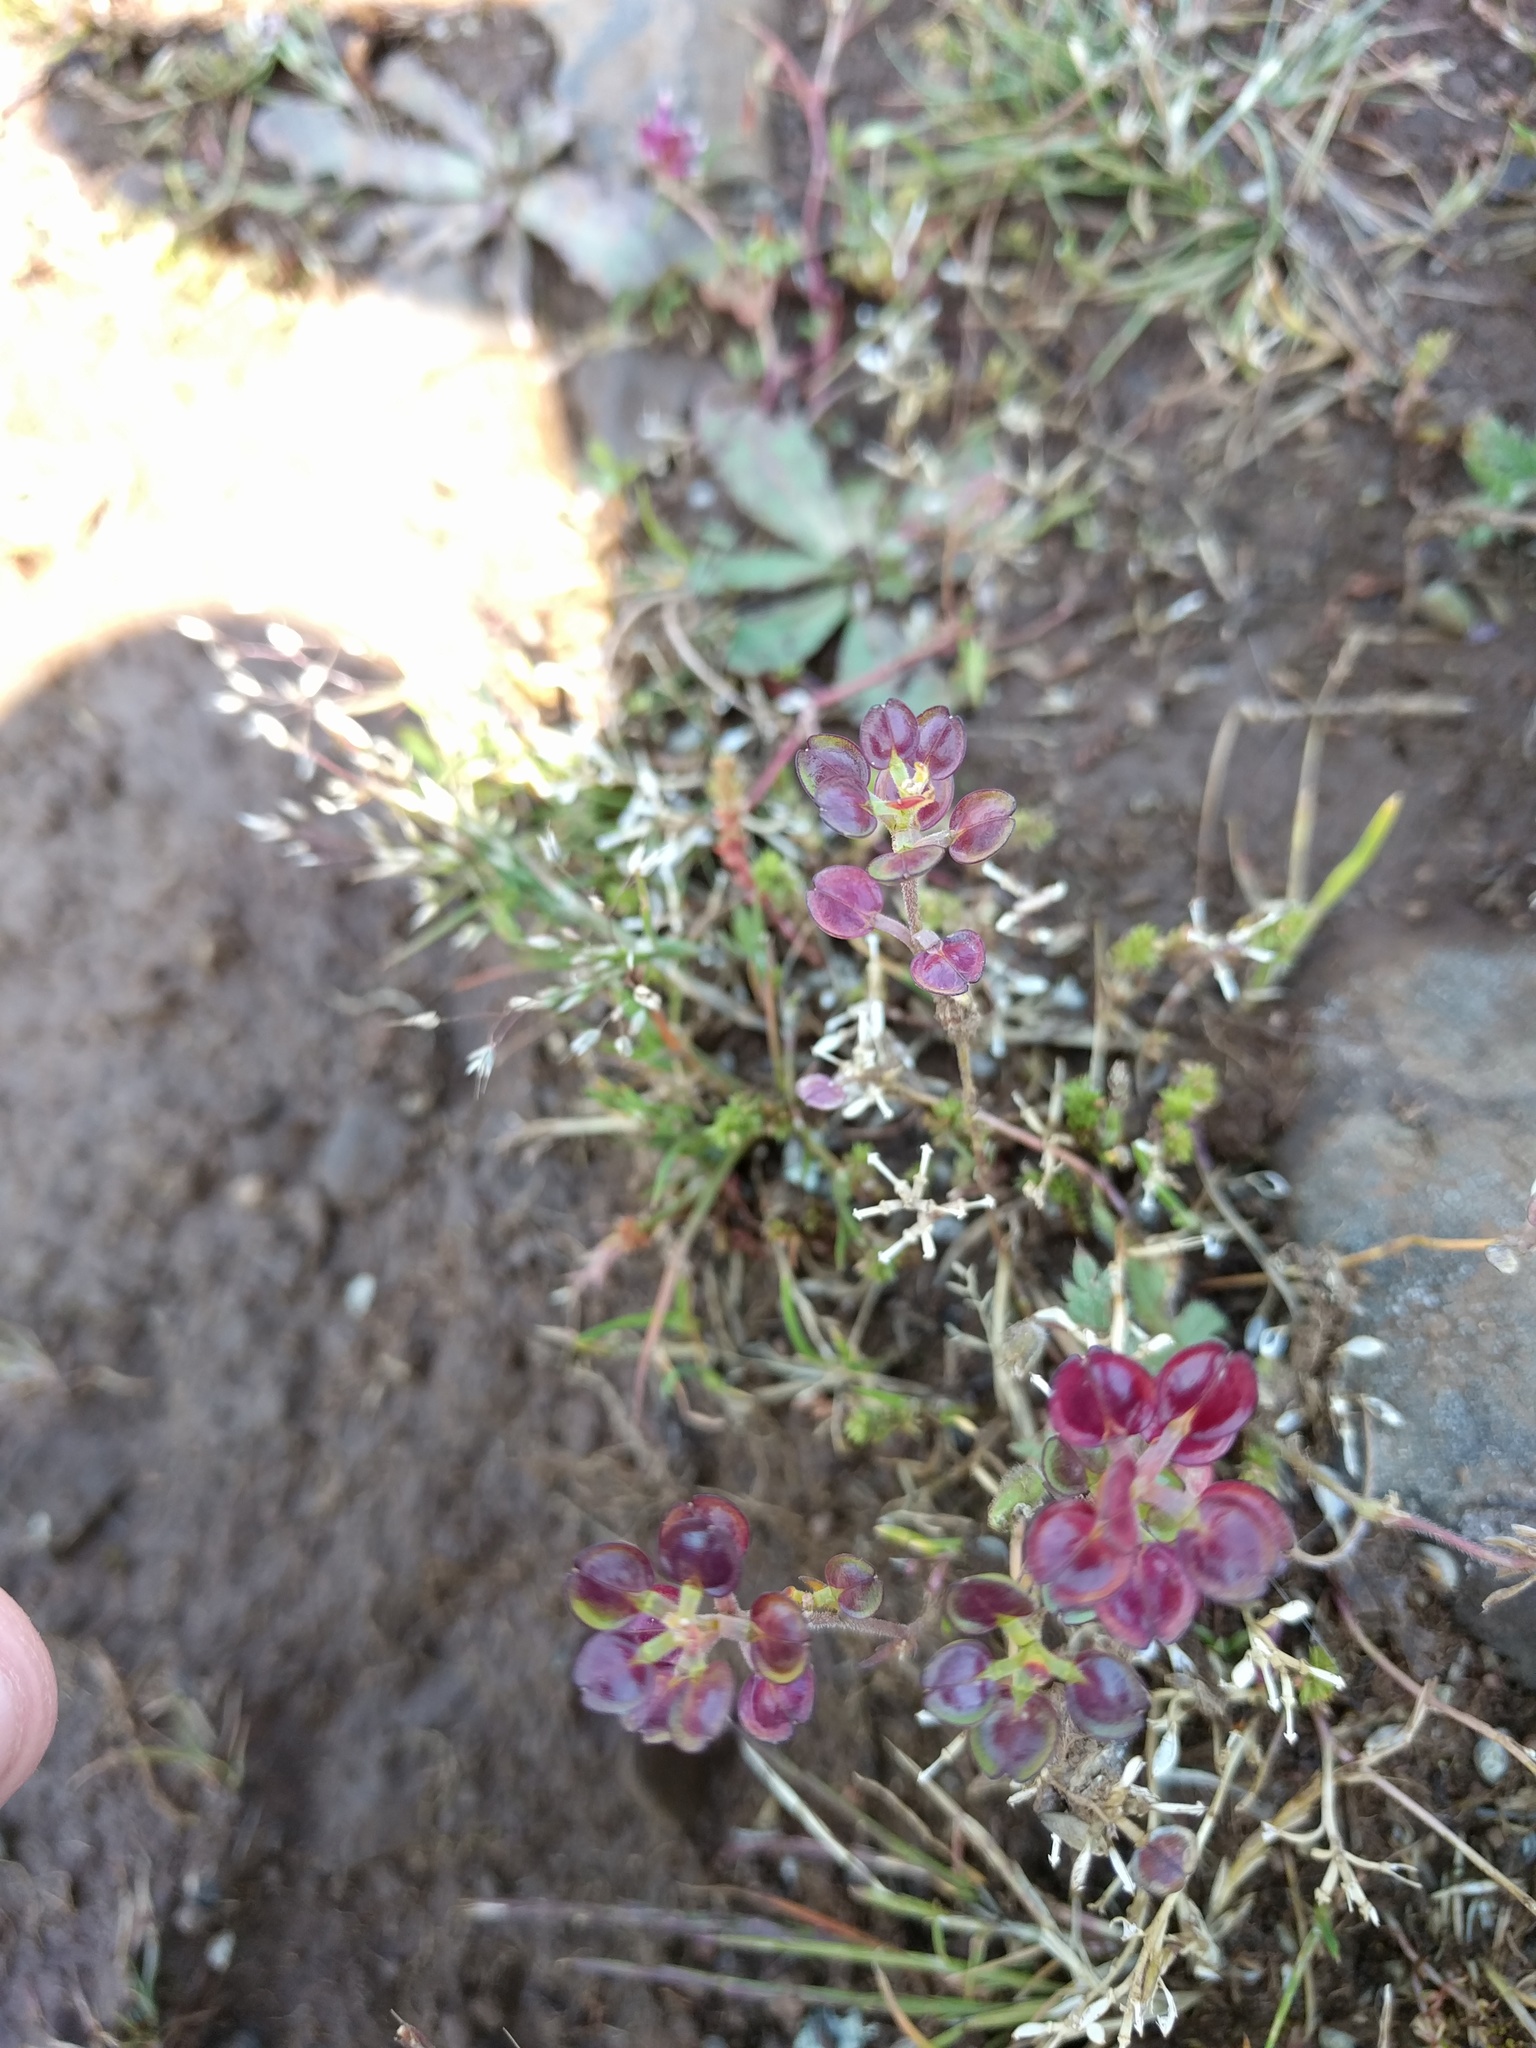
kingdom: Plantae
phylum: Tracheophyta
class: Magnoliopsida
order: Brassicales
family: Brassicaceae
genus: Lepidium
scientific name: Lepidium nitidum
